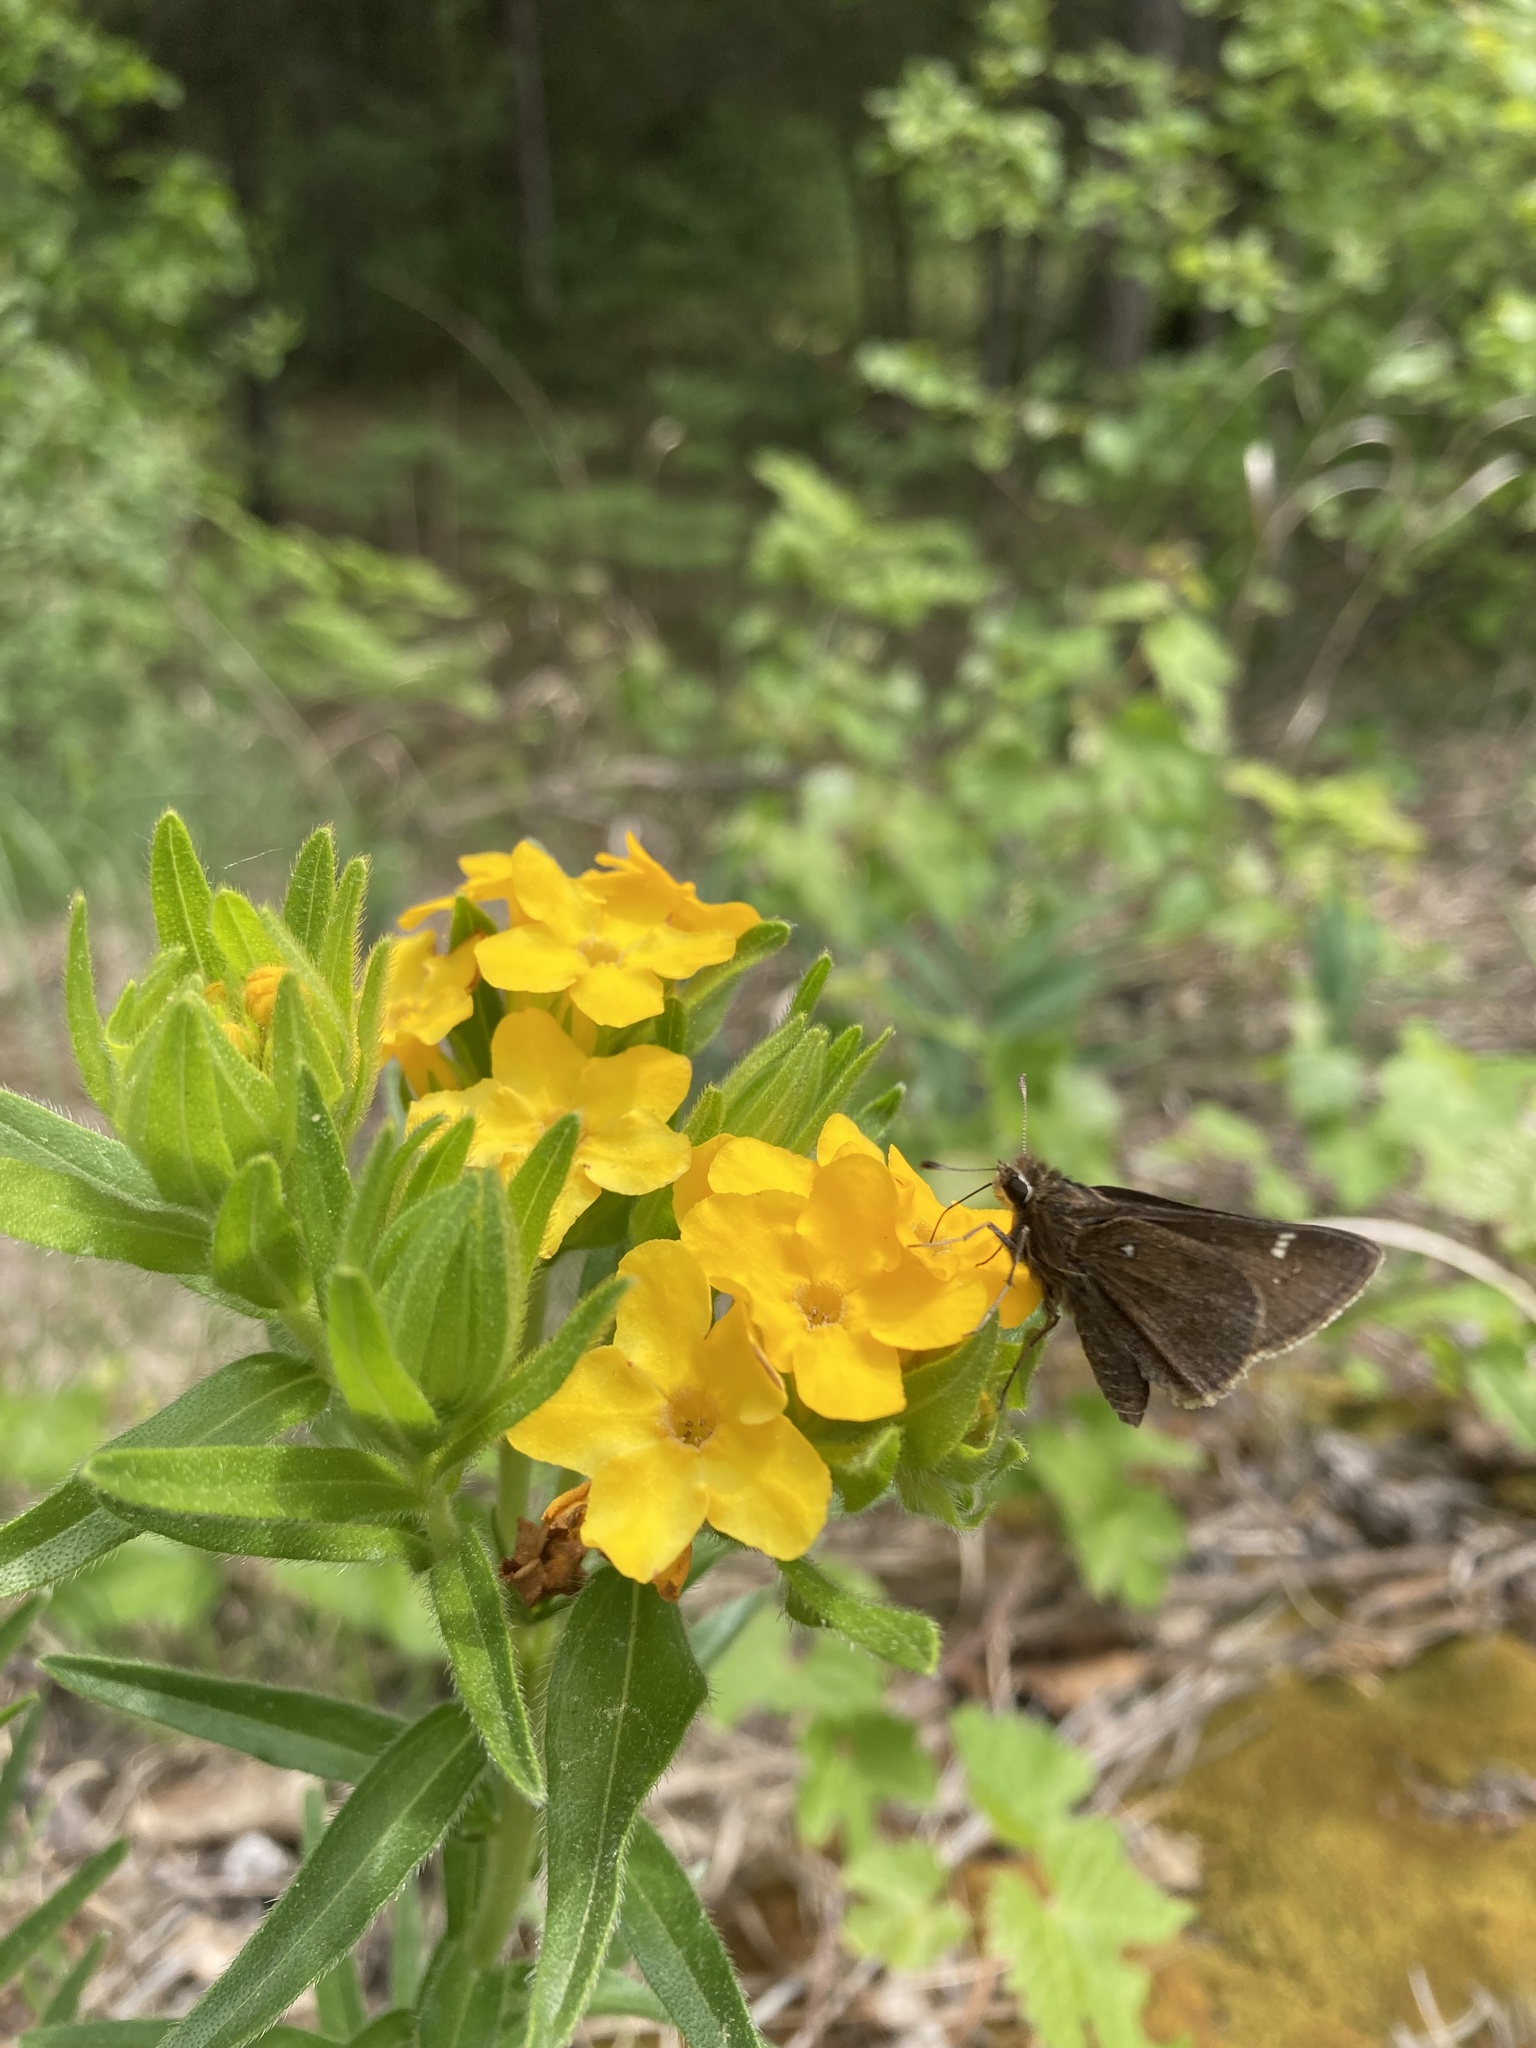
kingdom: Animalia
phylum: Arthropoda
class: Insecta
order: Lepidoptera
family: Hesperiidae
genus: Atrytonopsis
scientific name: Atrytonopsis hianna
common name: Dusted skipper
